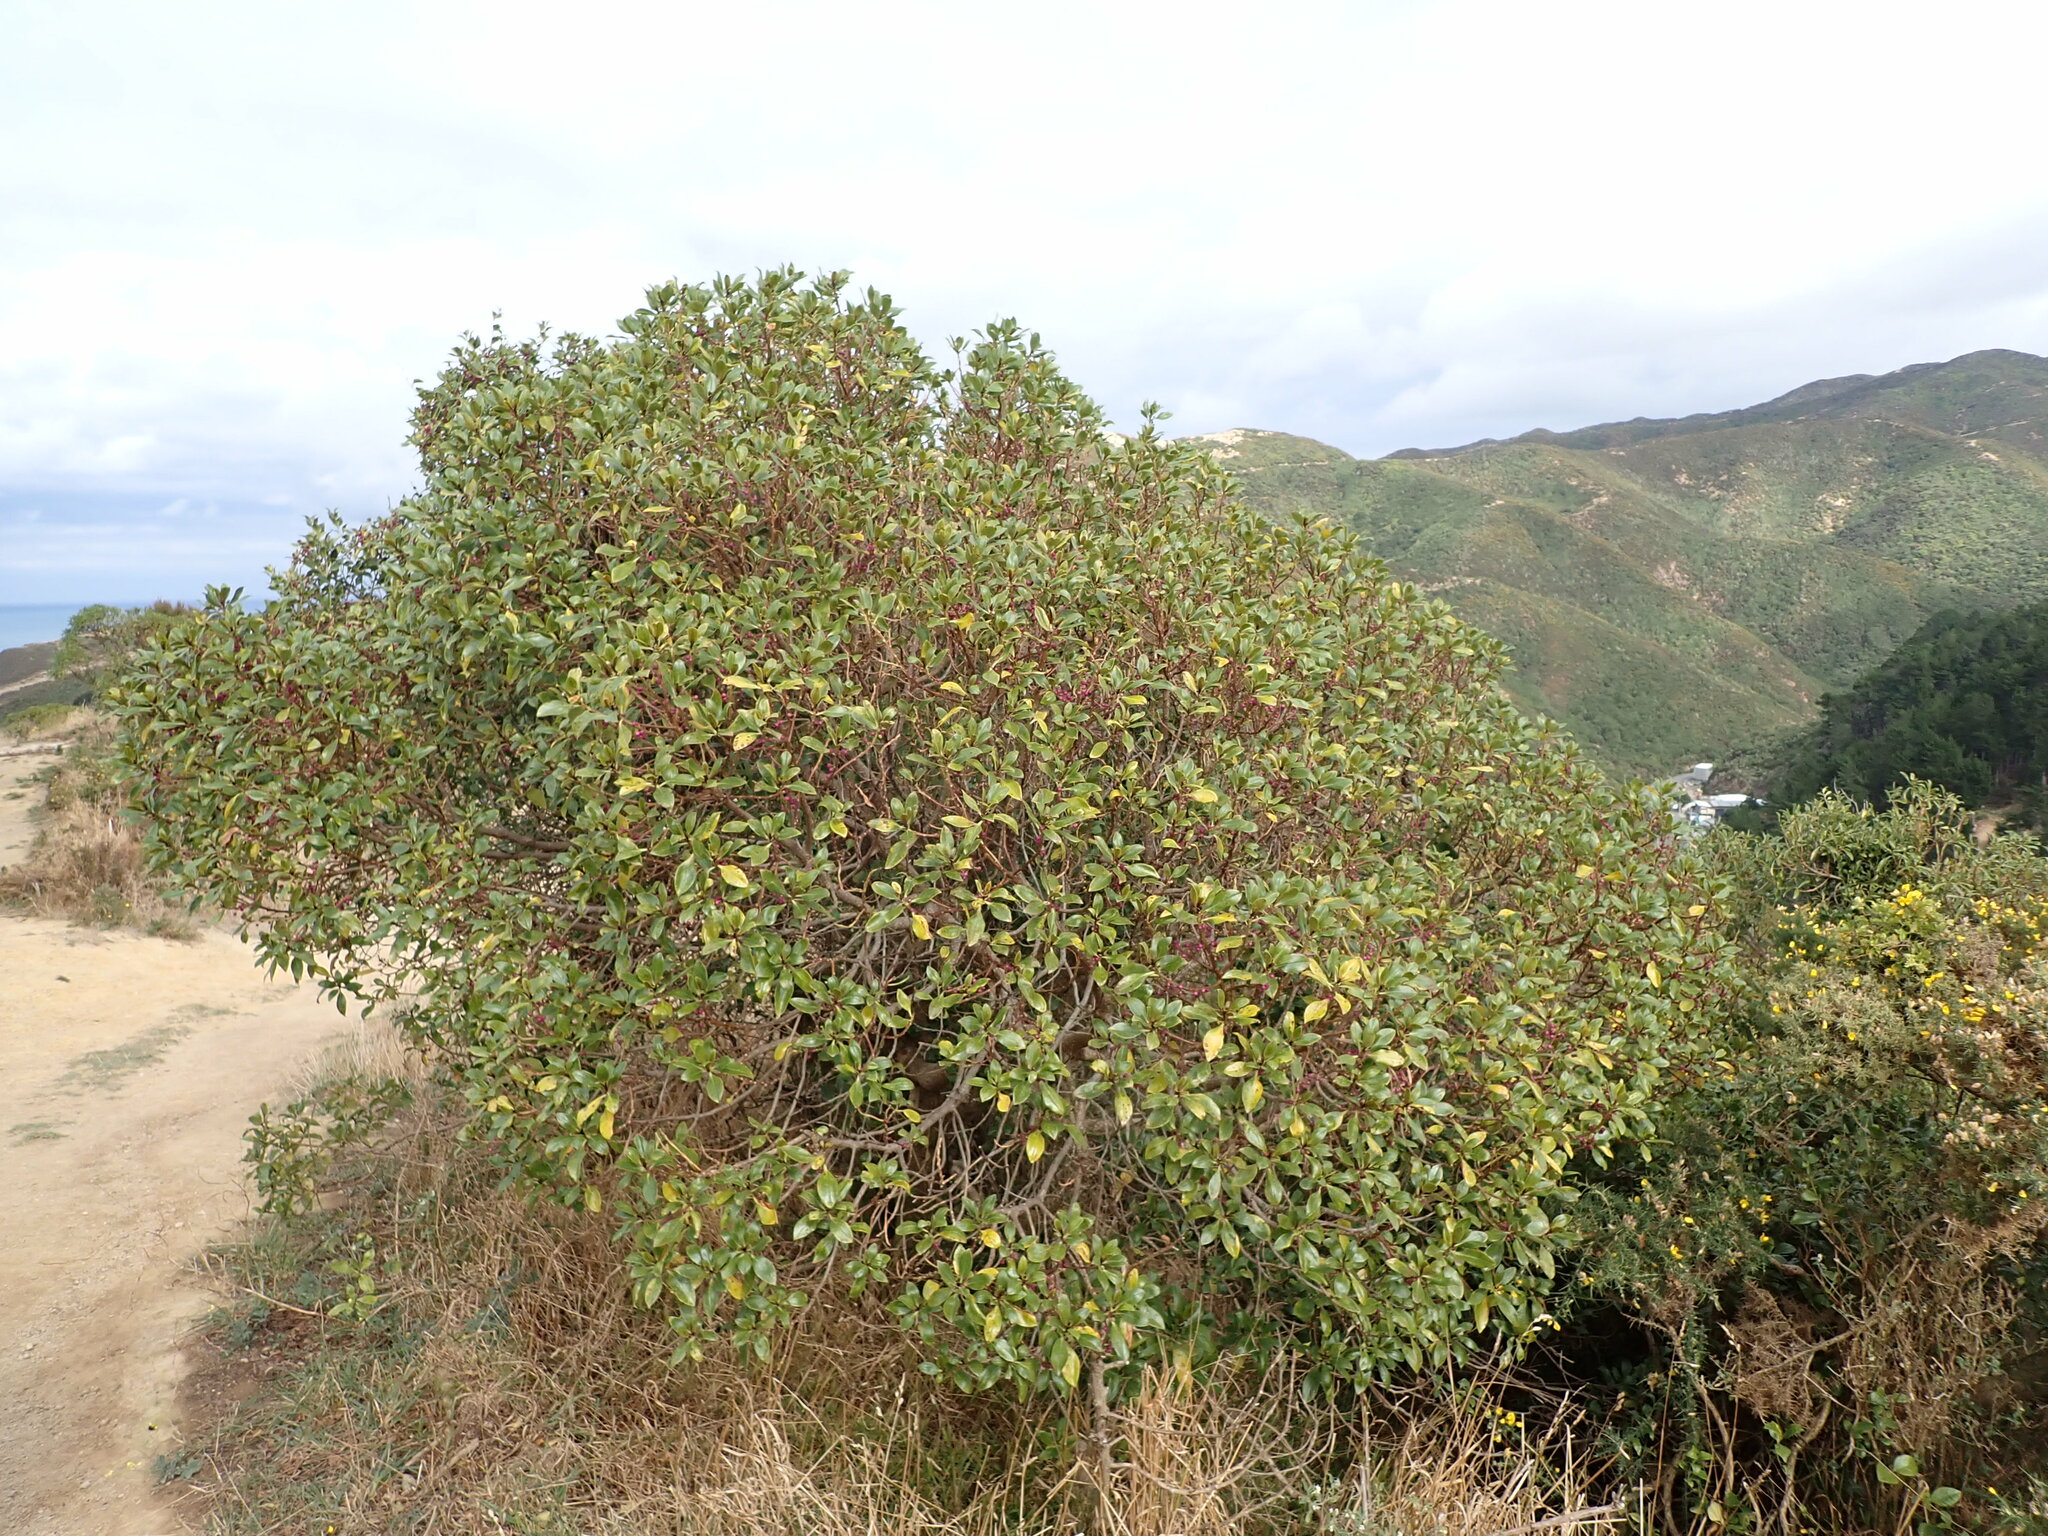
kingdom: Plantae
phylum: Tracheophyta
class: Magnoliopsida
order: Lamiales
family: Scrophulariaceae
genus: Myoporum
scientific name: Myoporum laetum
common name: Ngaio tree
